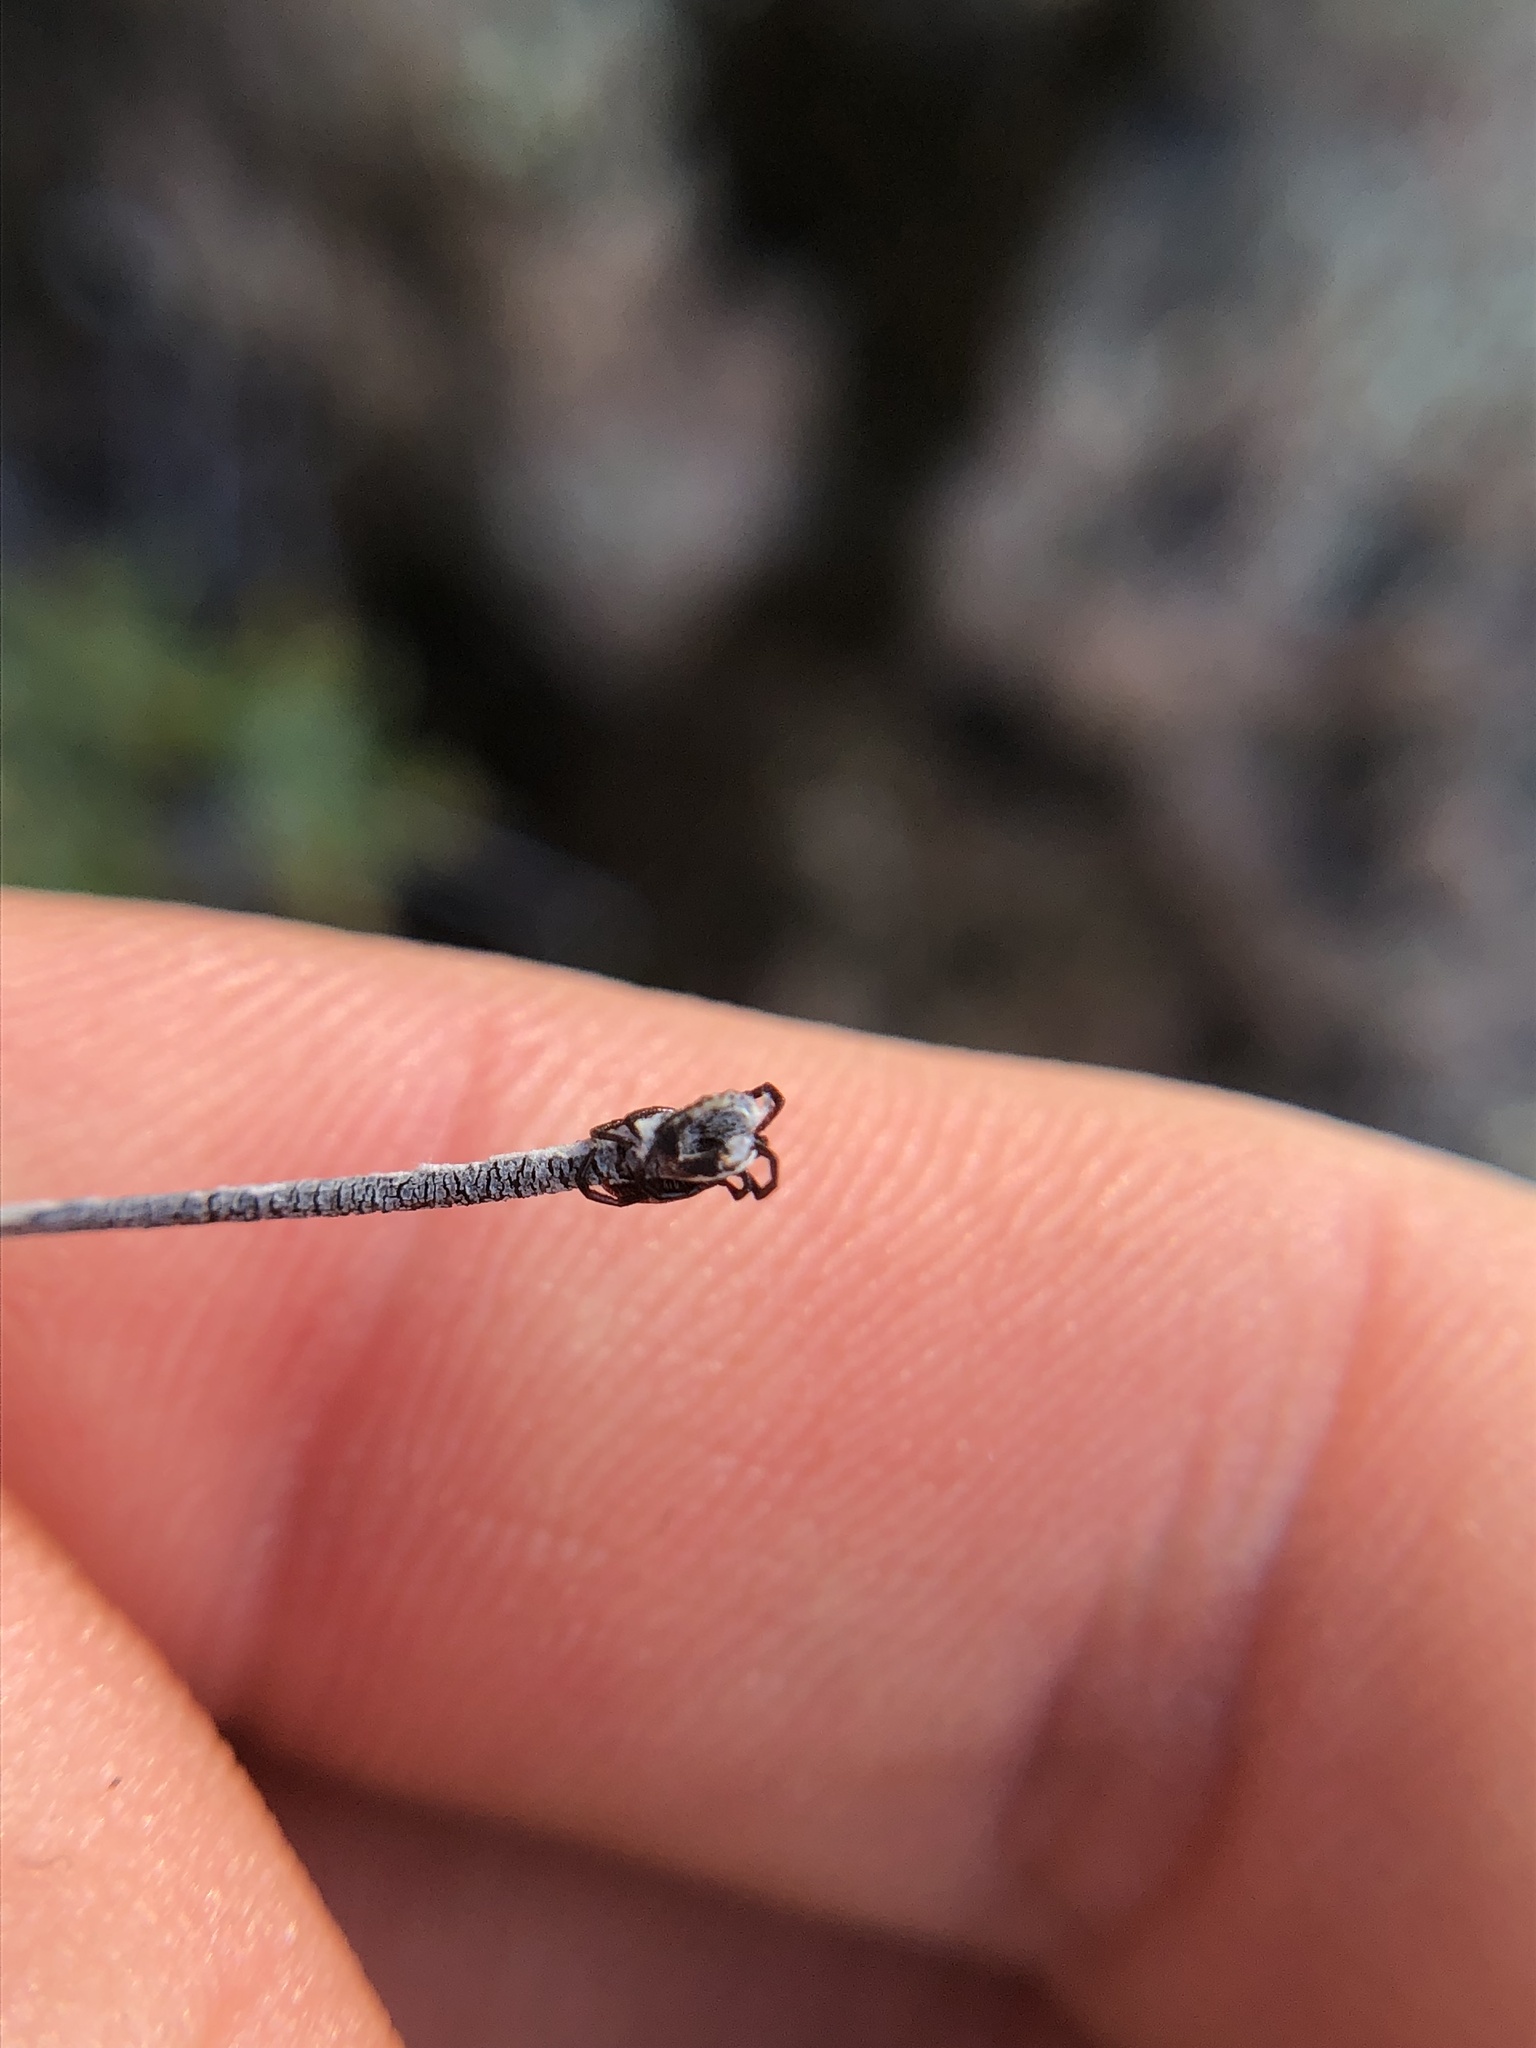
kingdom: Animalia
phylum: Arthropoda
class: Arachnida
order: Ixodida
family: Ixodidae
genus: Ixodes
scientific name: Ixodes pacificus
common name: California black-legged tick
